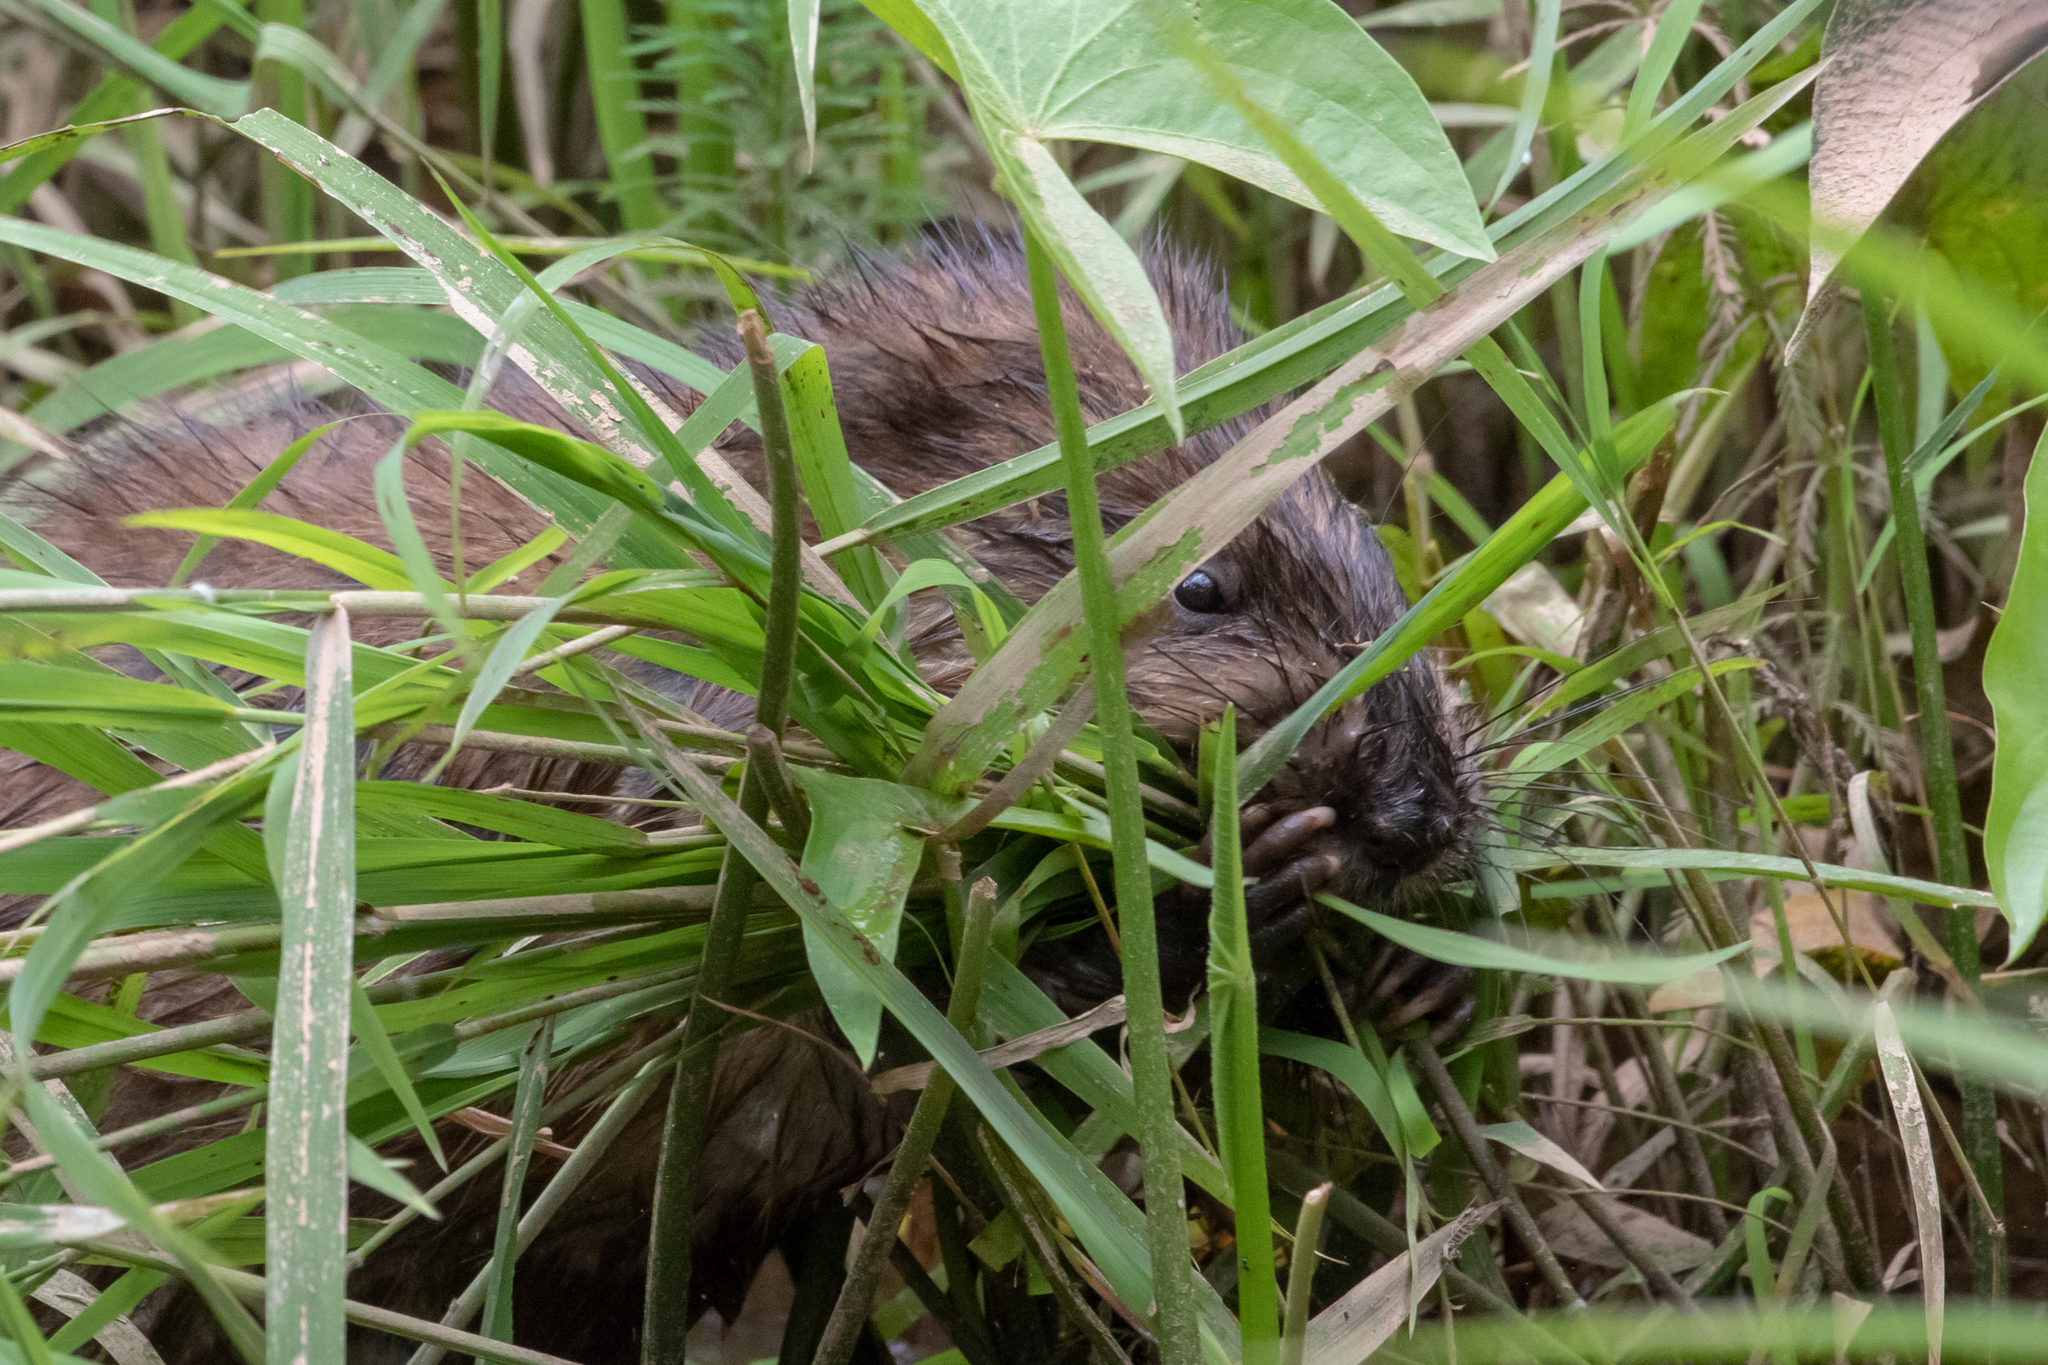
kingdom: Animalia
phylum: Chordata
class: Mammalia
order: Rodentia
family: Cricetidae
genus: Ondatra
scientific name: Ondatra zibethicus
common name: Muskrat
